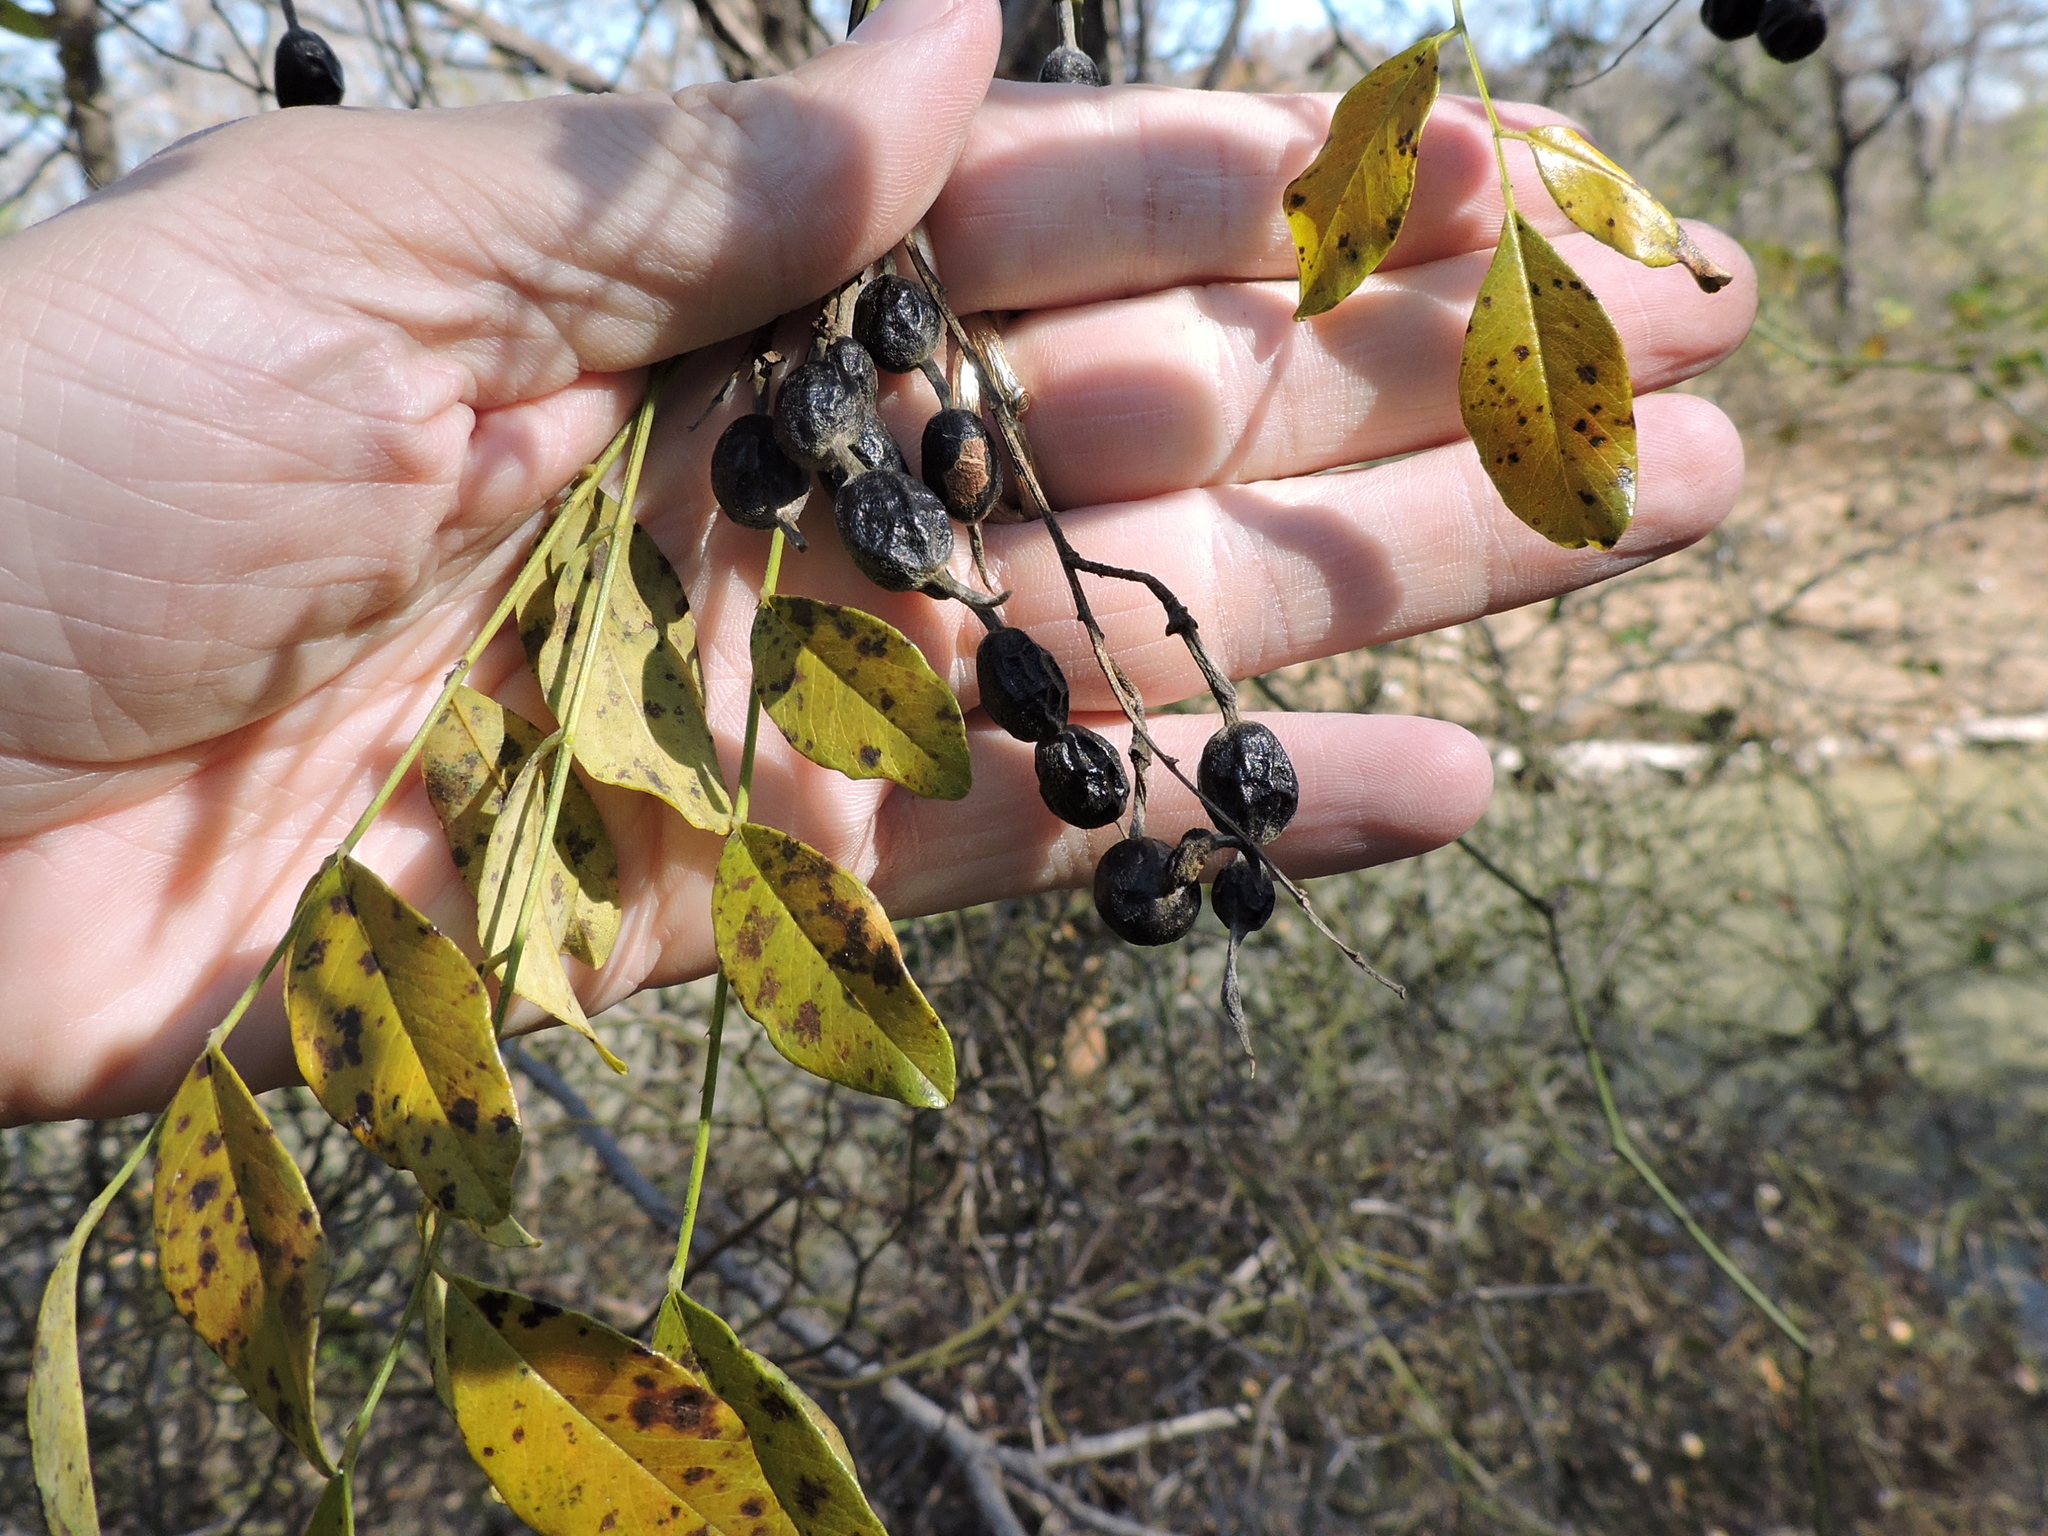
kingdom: Plantae
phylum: Tracheophyta
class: Magnoliopsida
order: Fabales
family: Fabaceae
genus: Styphnolobium
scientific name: Styphnolobium affine
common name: Texas sophora
